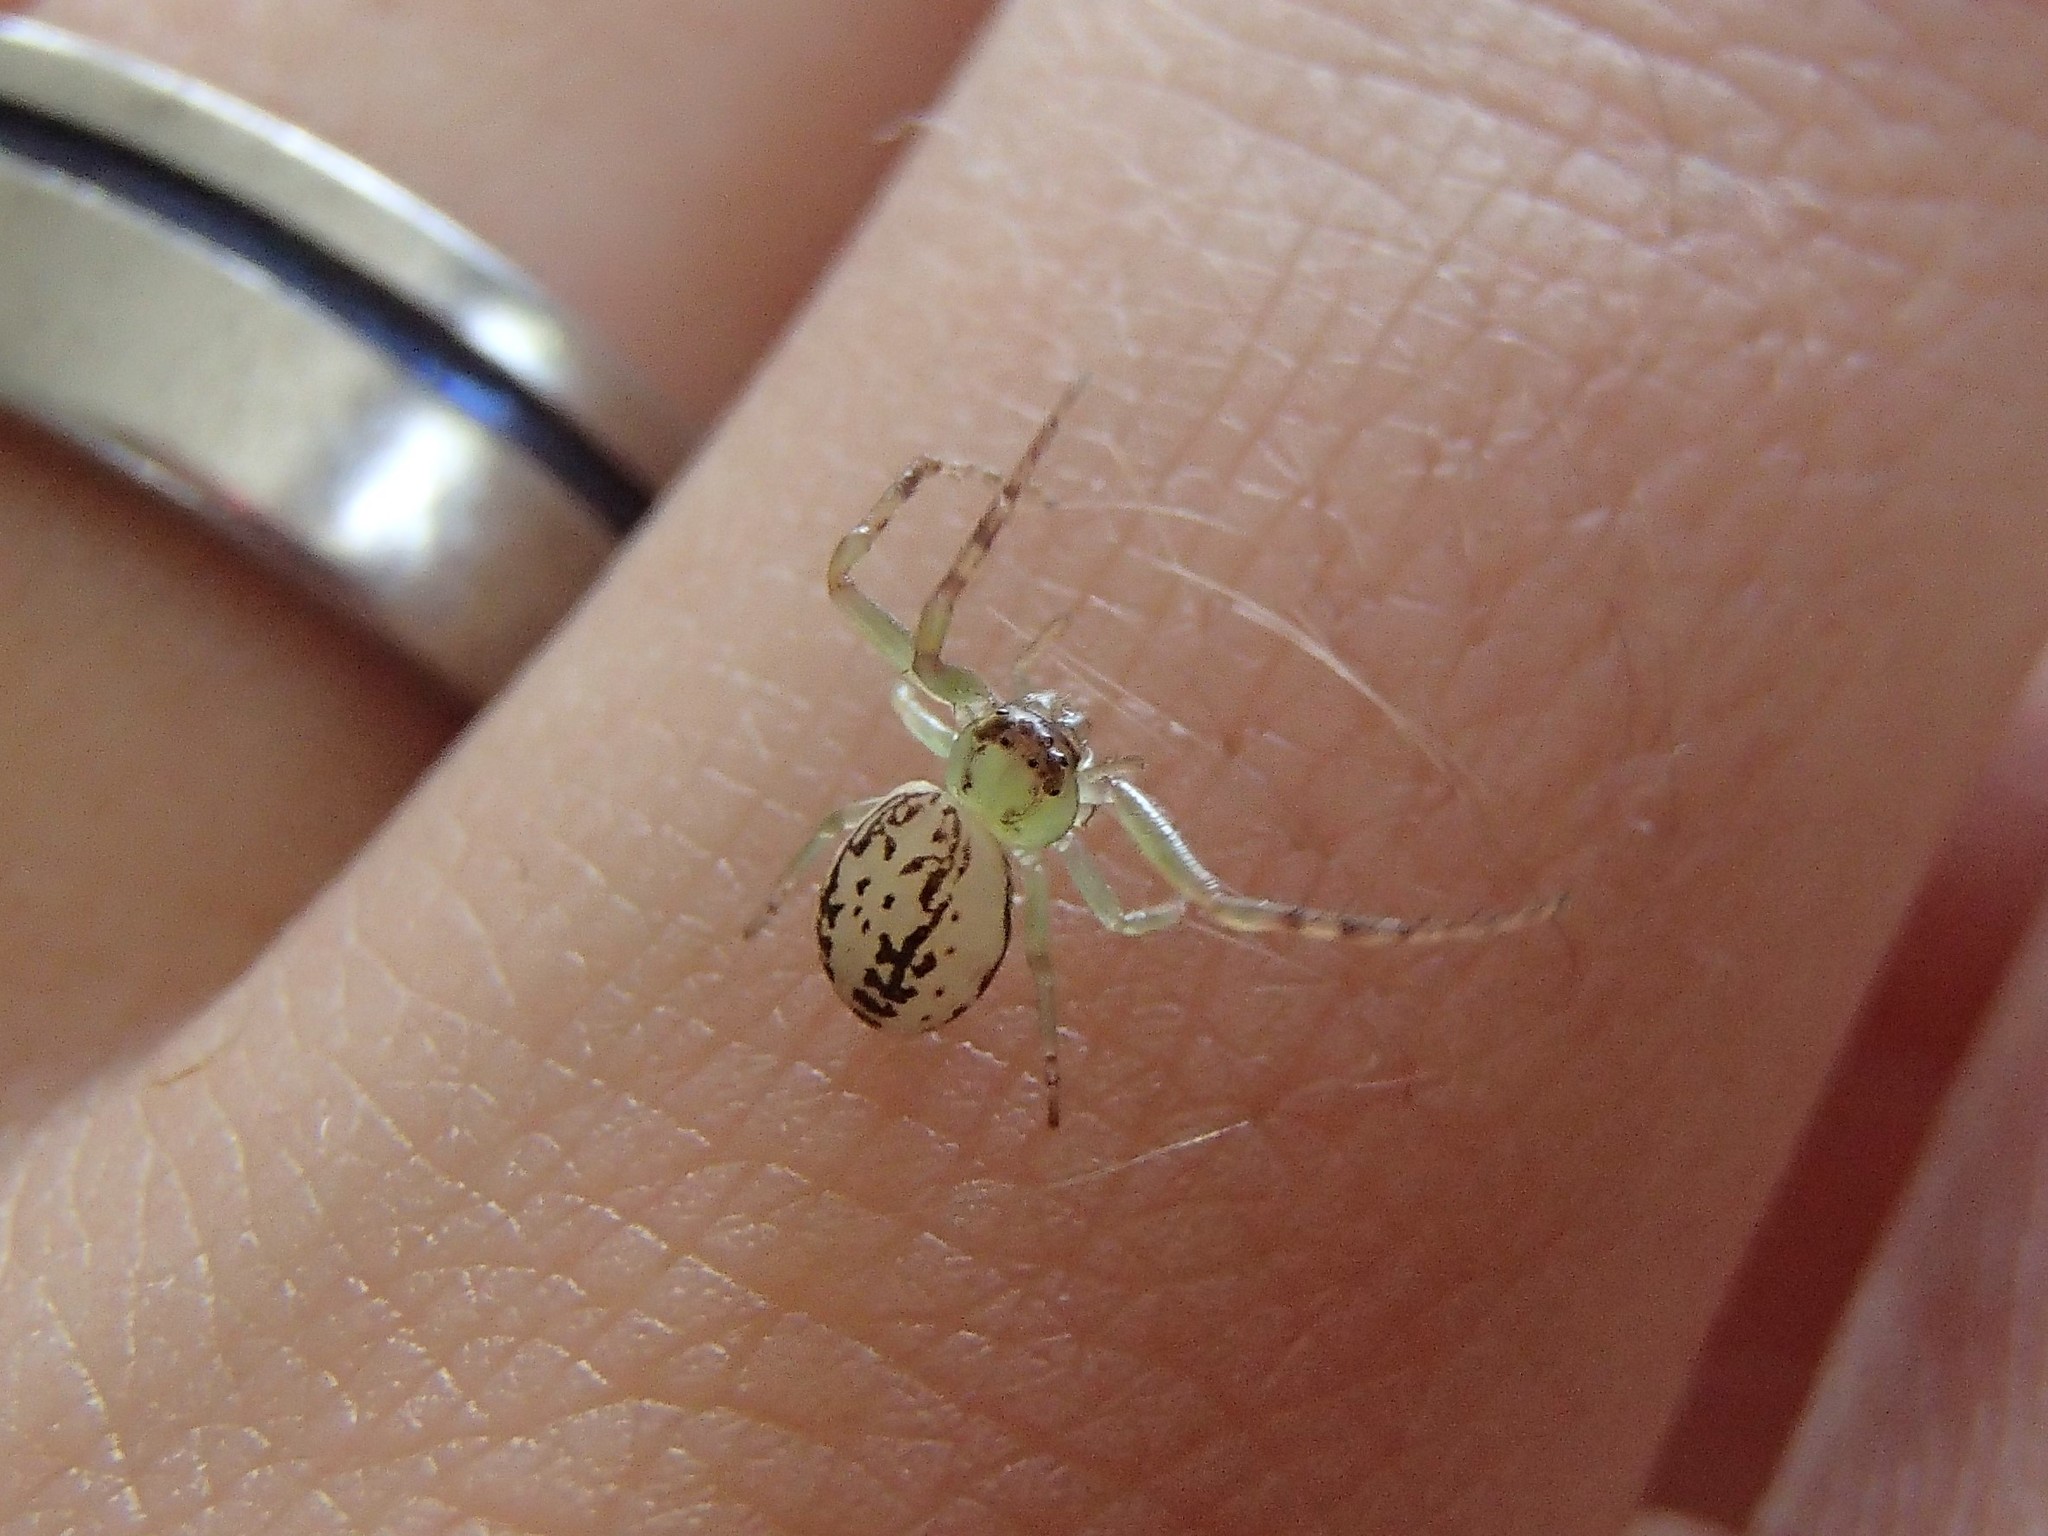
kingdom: Animalia
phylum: Arthropoda
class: Arachnida
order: Araneae
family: Thomisidae
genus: Diaea
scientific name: Diaea ambara
